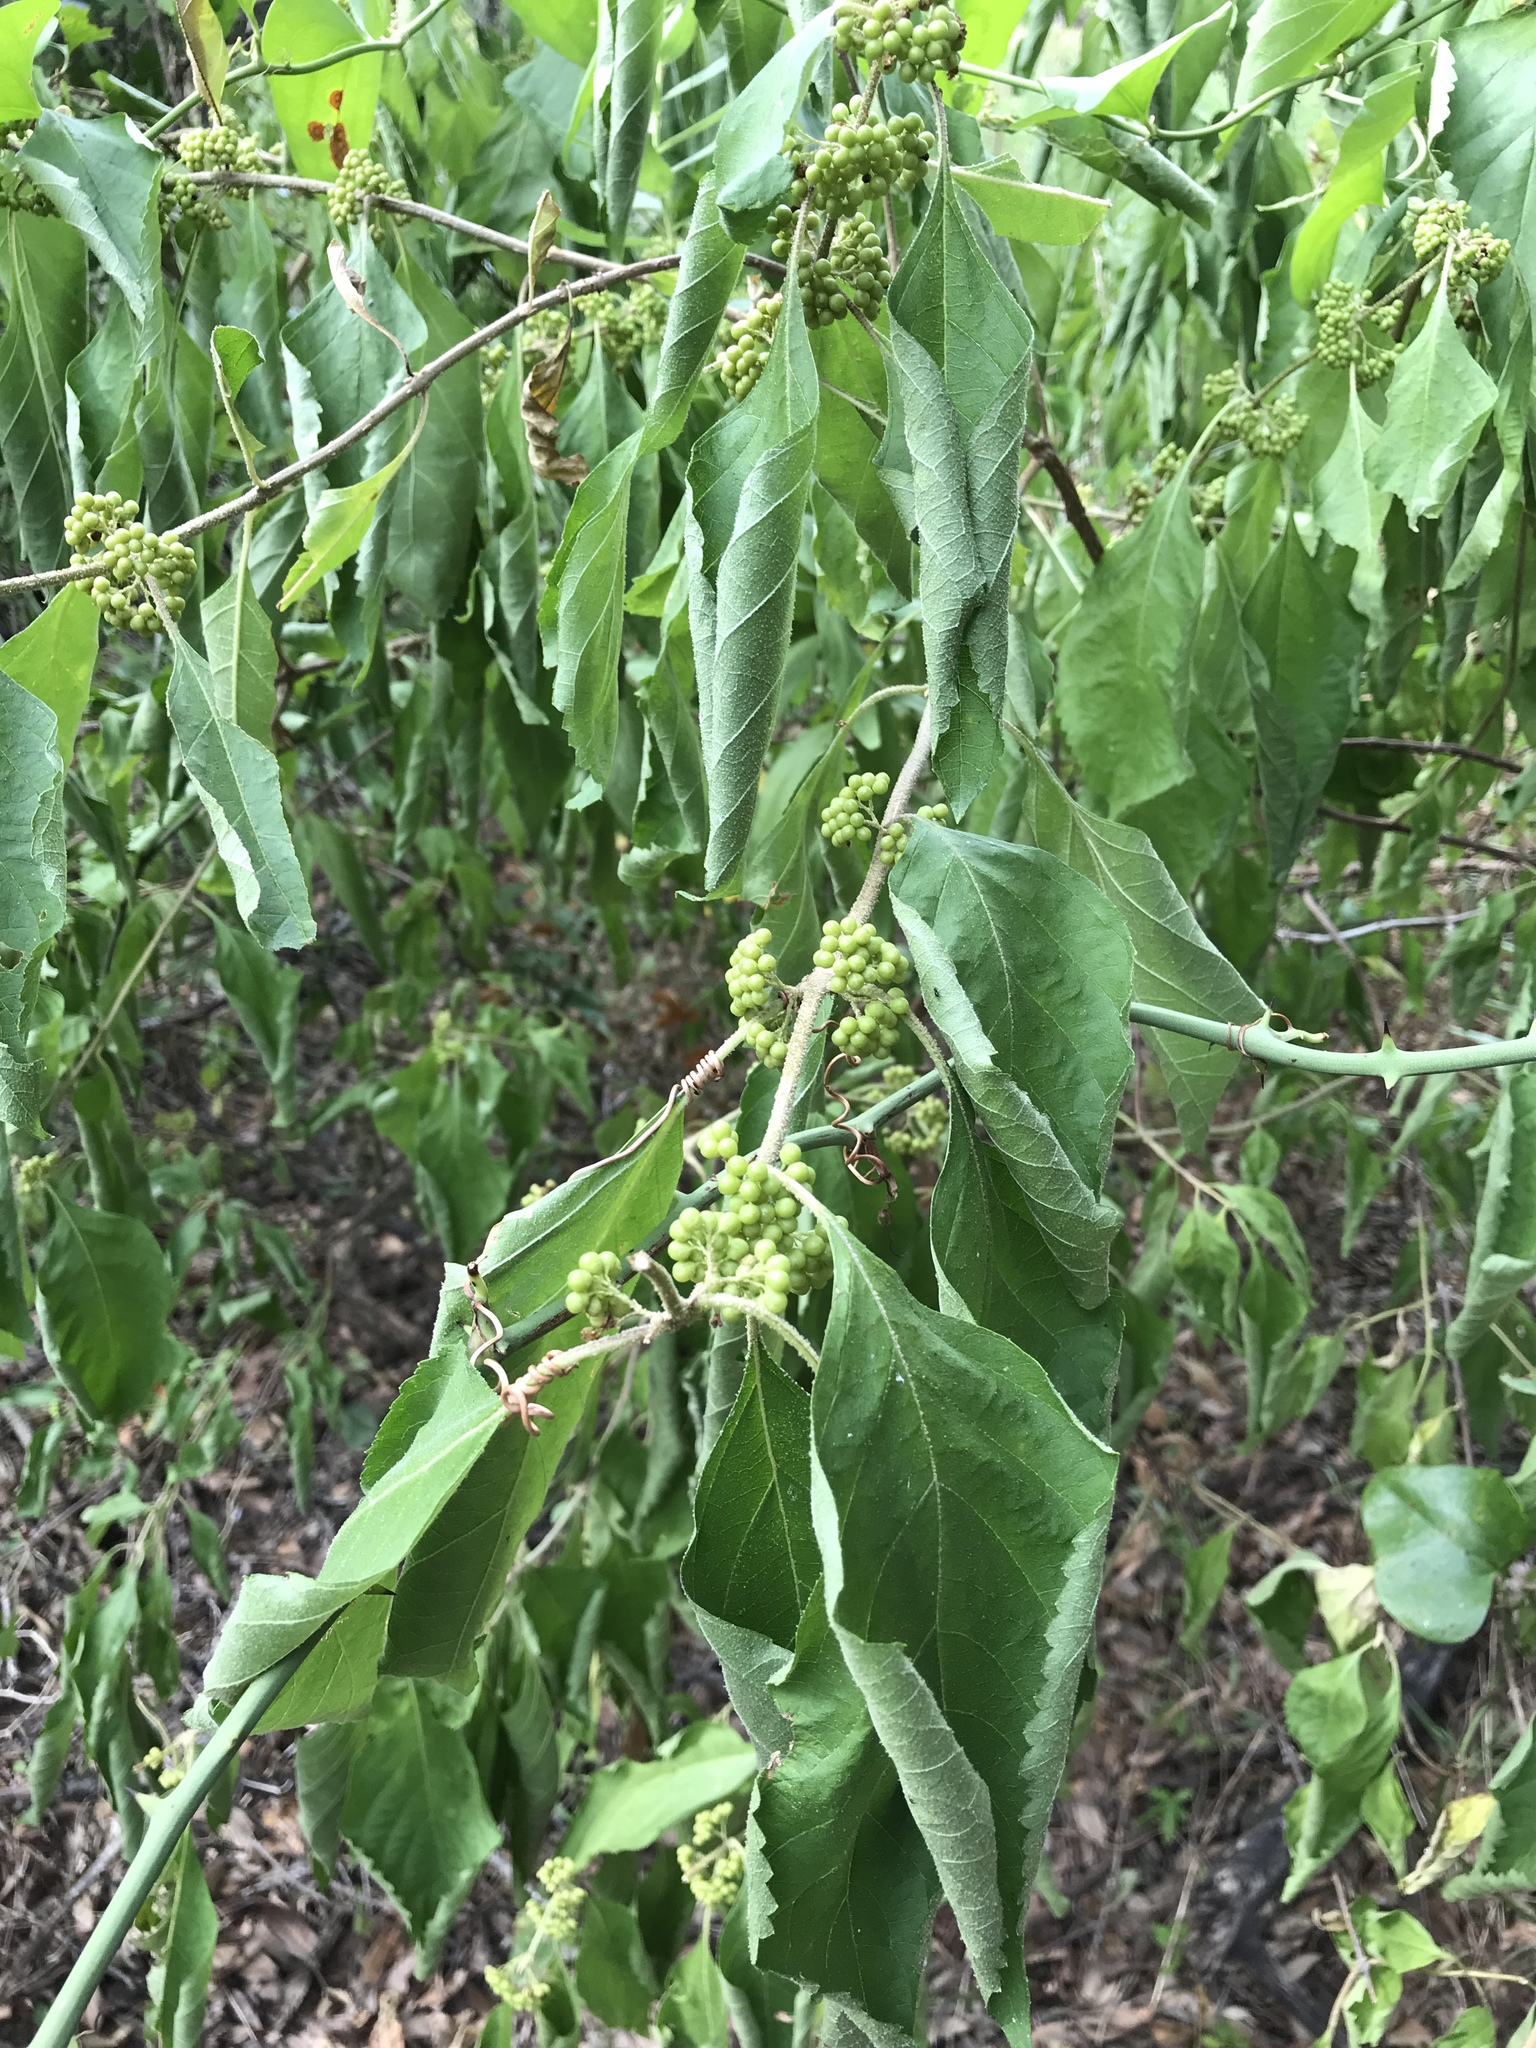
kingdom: Plantae
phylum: Tracheophyta
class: Magnoliopsida
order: Lamiales
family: Lamiaceae
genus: Callicarpa
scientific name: Callicarpa americana
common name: American beautyberry
